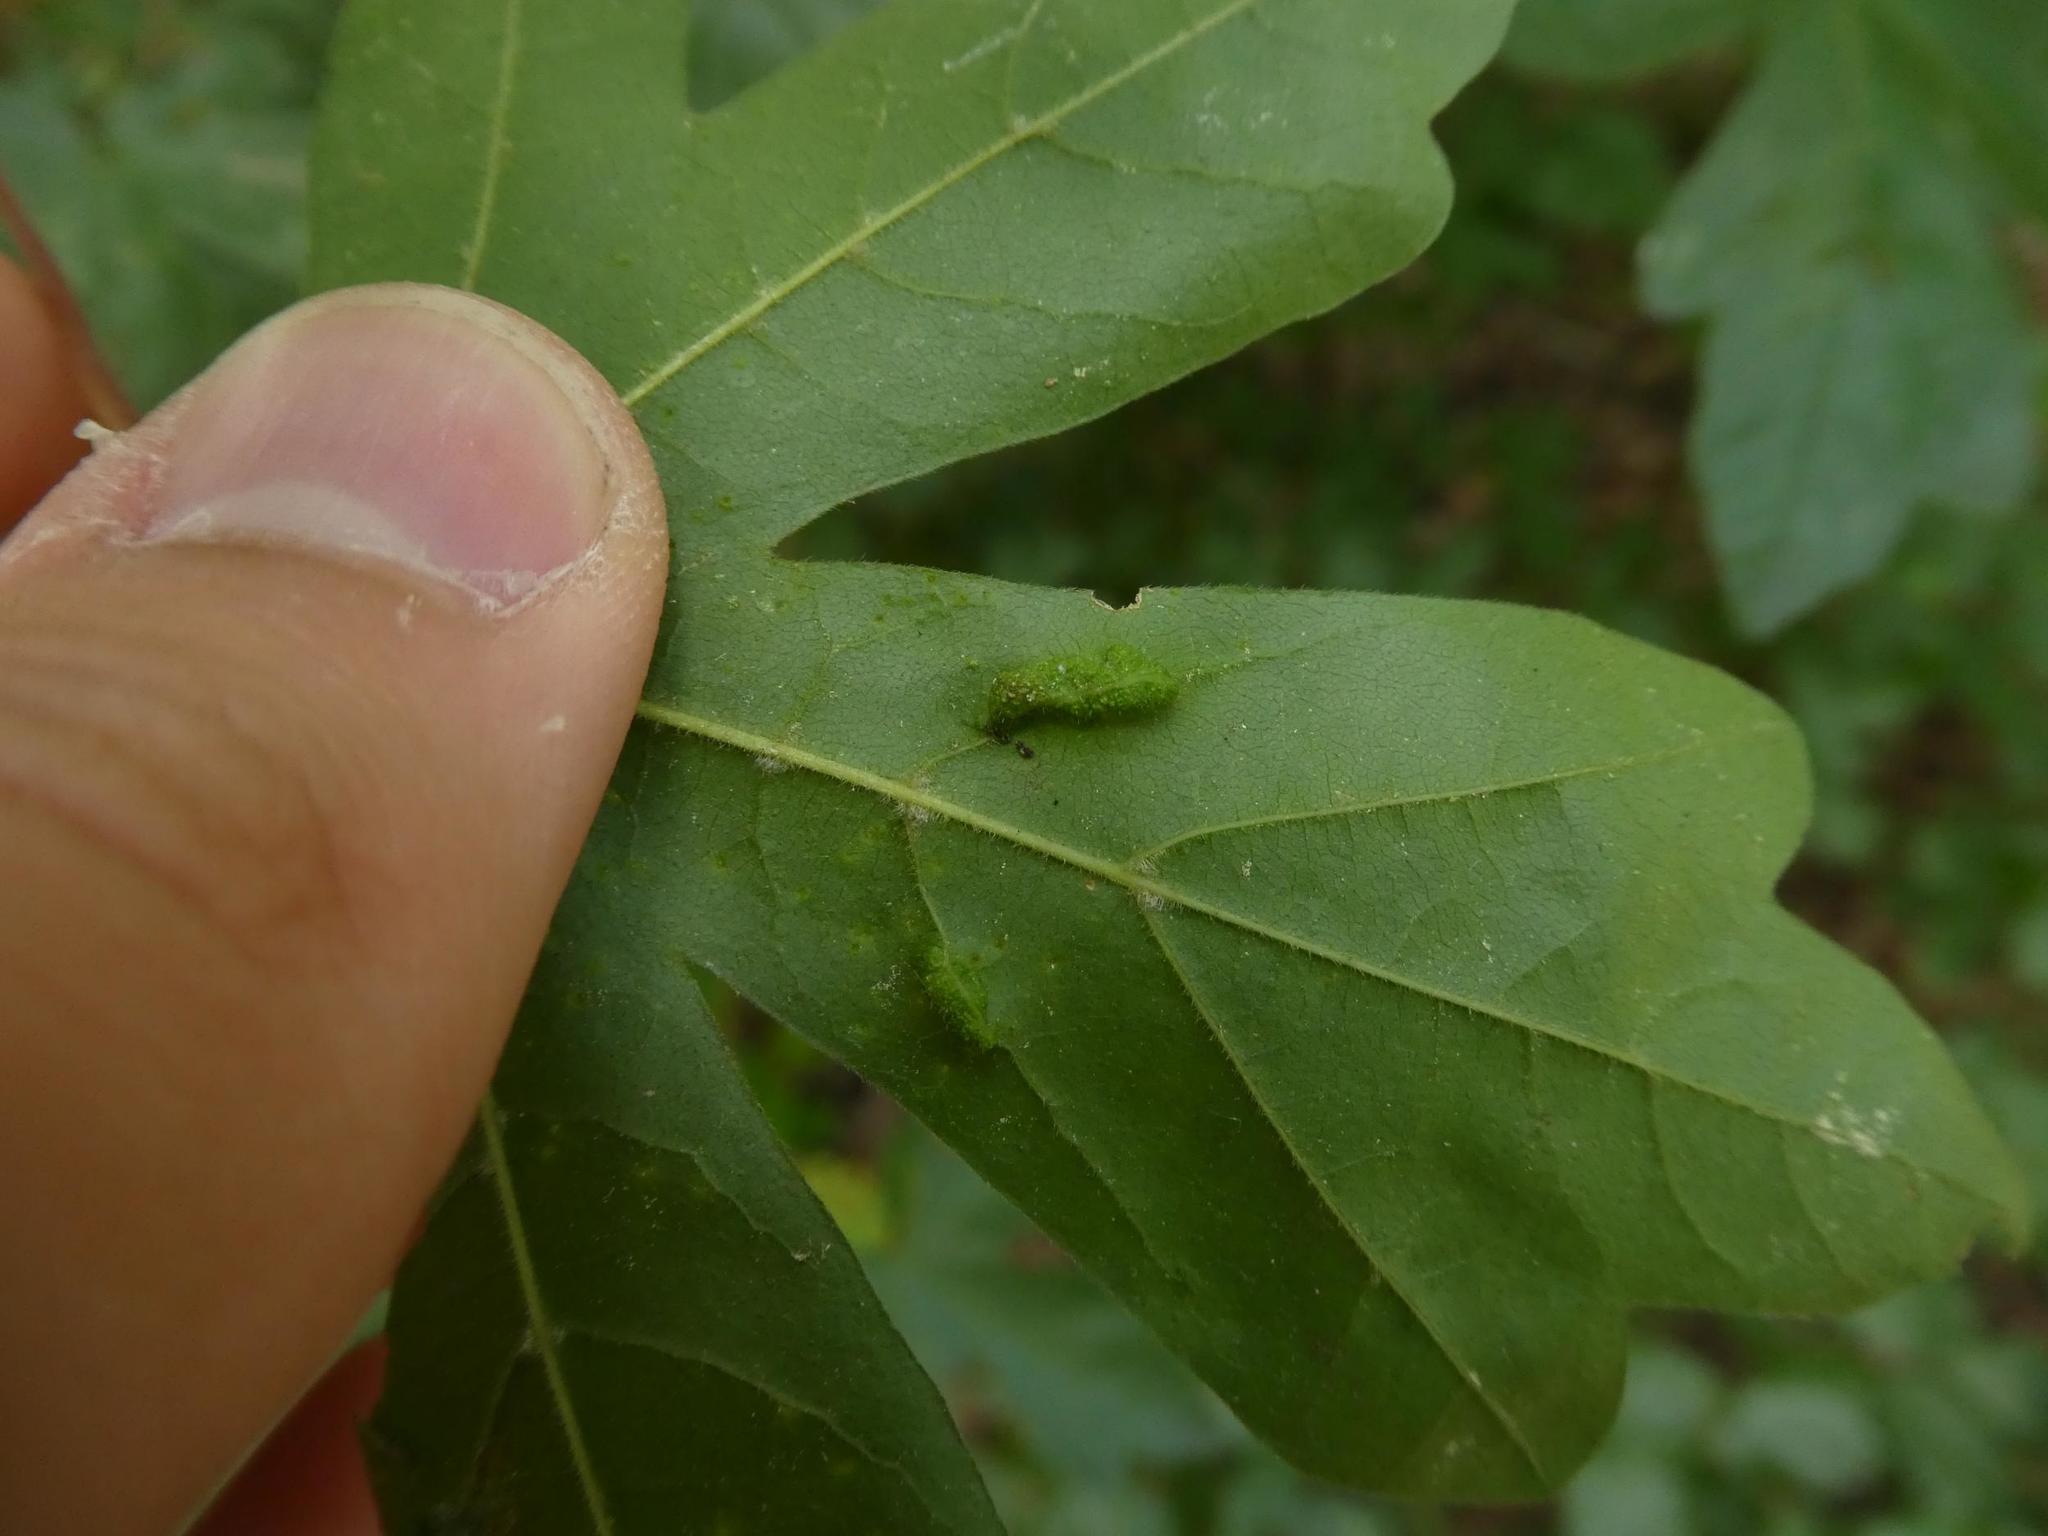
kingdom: Animalia
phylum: Arthropoda
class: Arachnida
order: Trombidiformes
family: Eriophyidae
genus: Aceria
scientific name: Aceria carinifex
